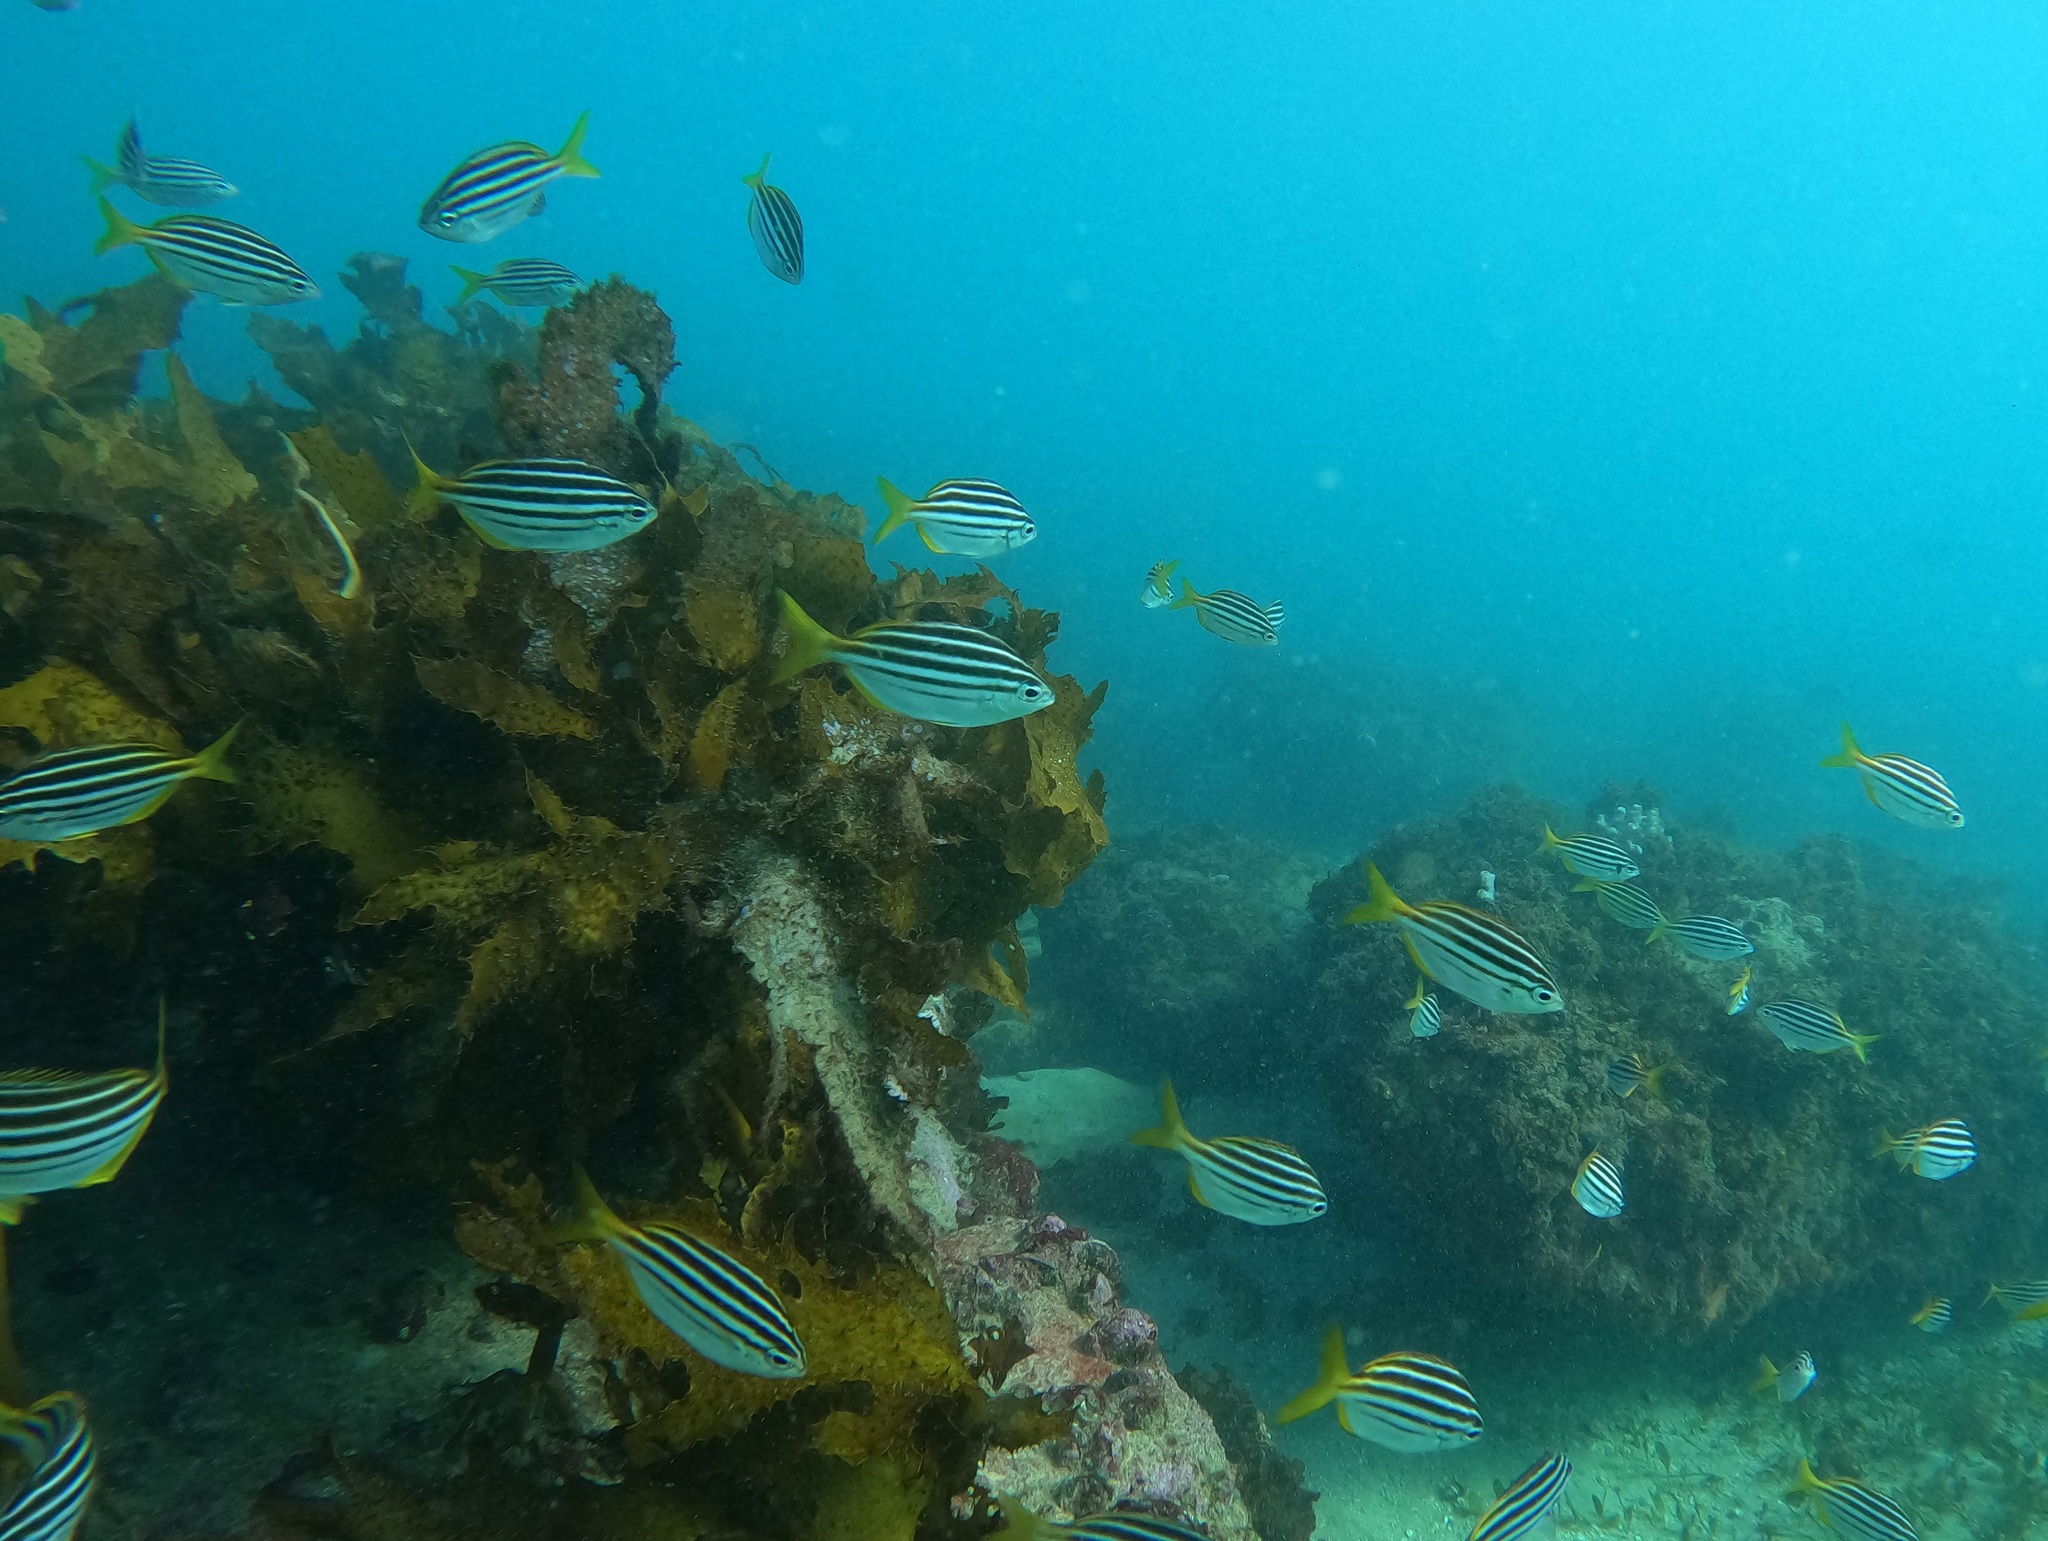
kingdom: Animalia
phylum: Chordata
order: Perciformes
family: Kyphosidae
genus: Atypichthys
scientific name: Atypichthys strigatus
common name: Australian mado
